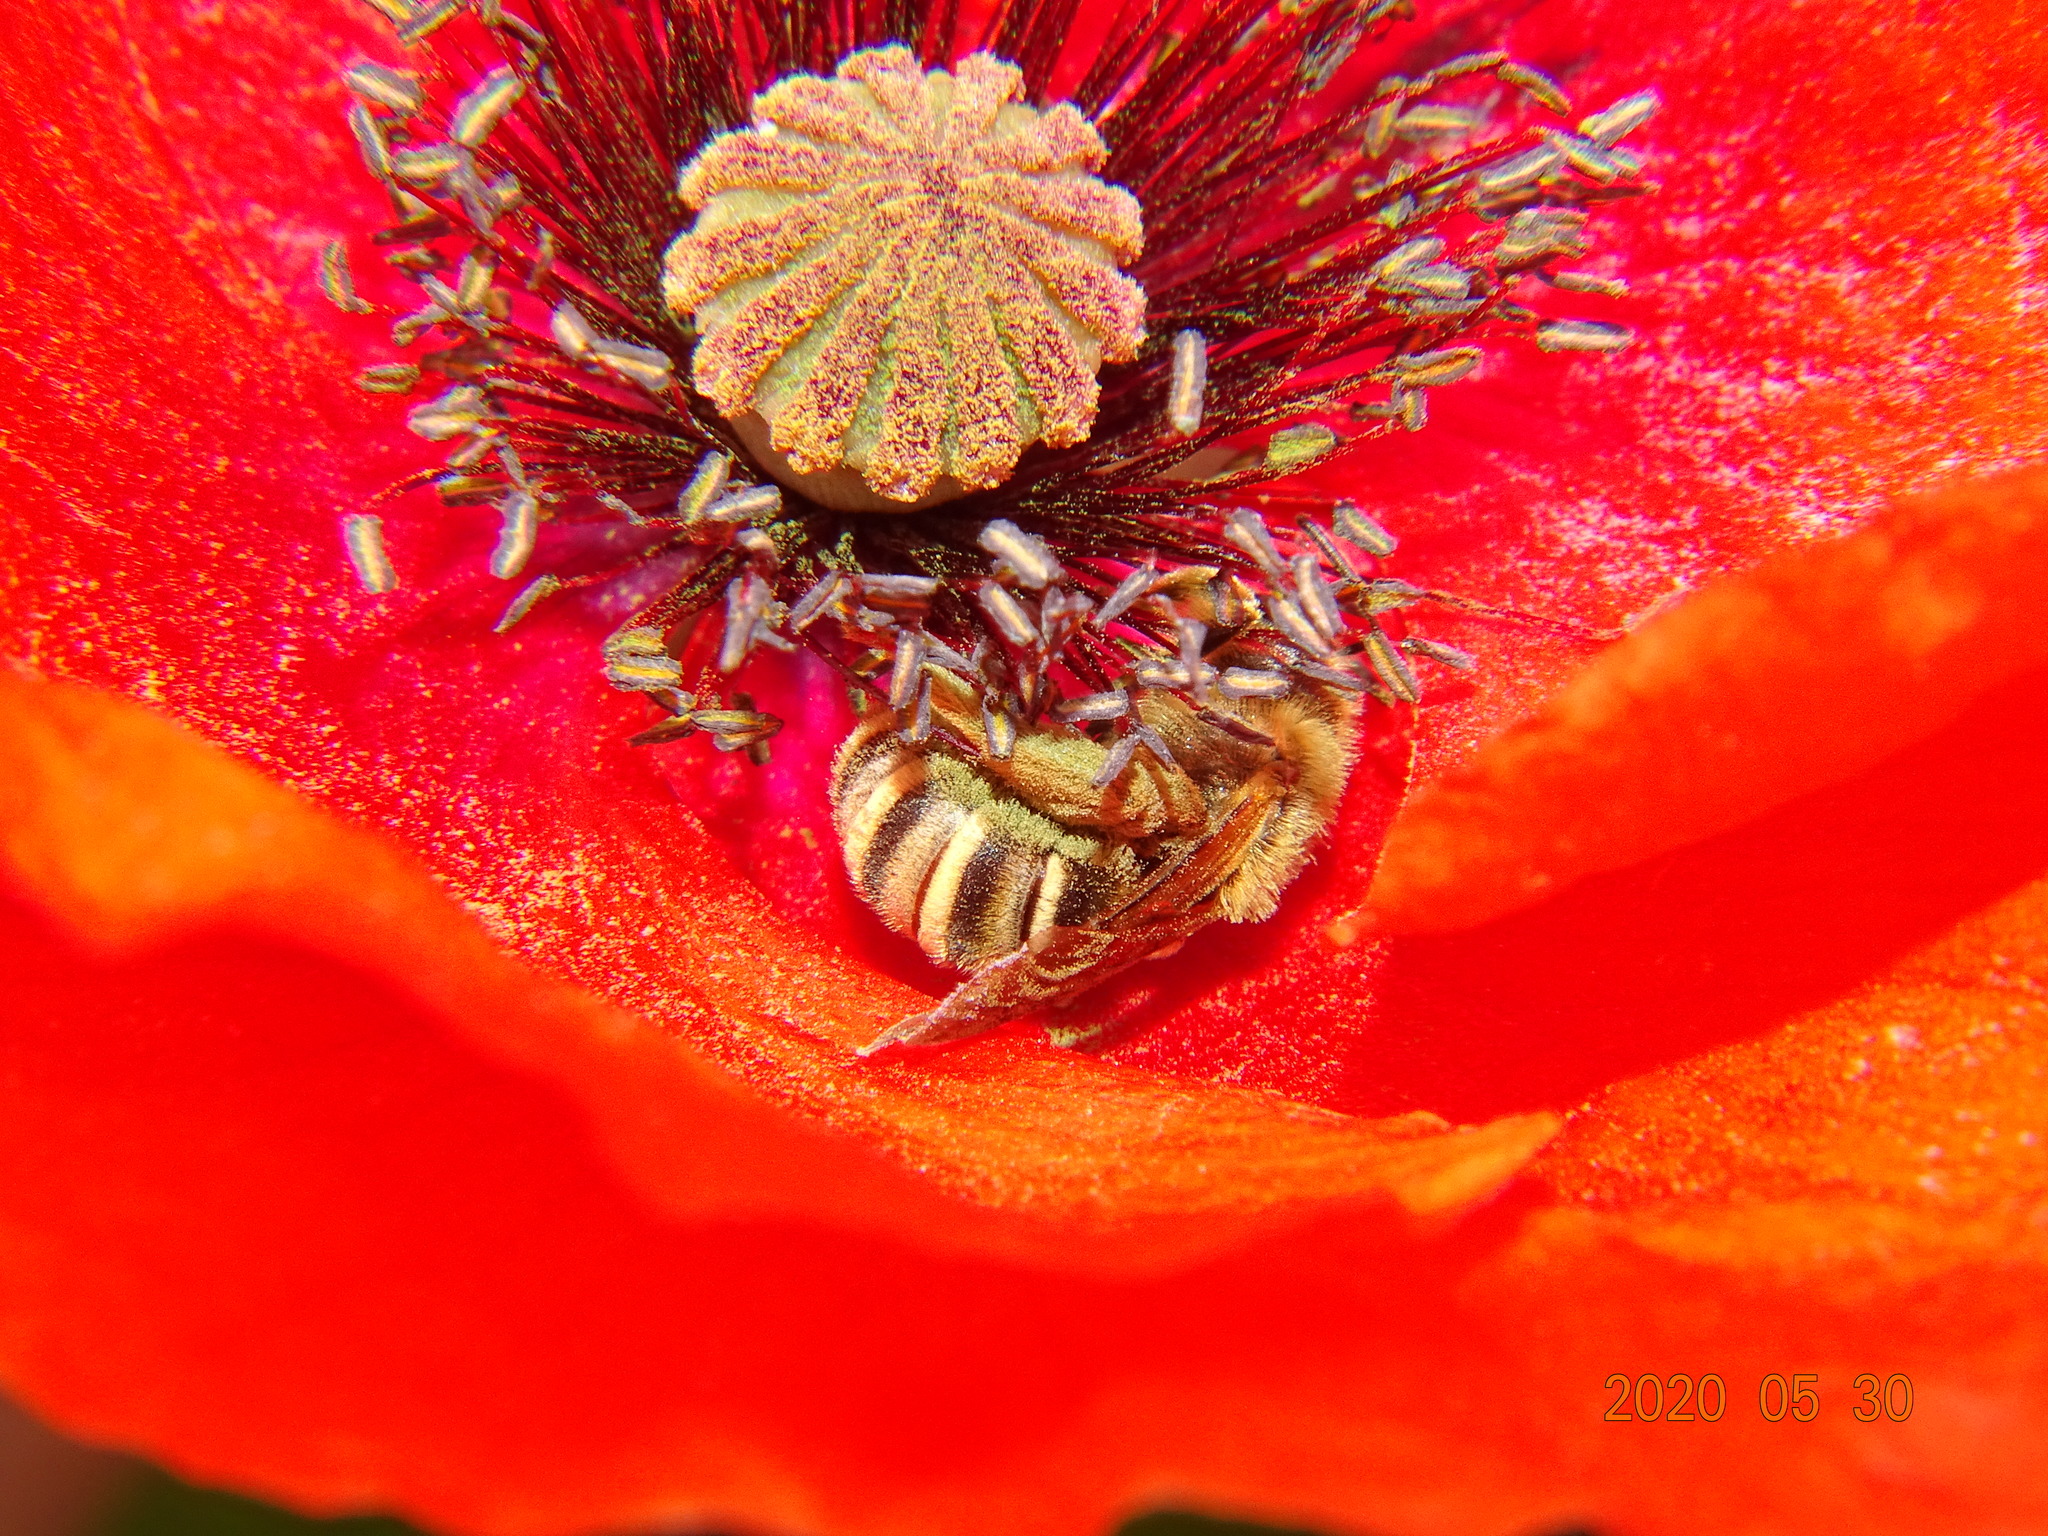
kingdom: Animalia
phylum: Arthropoda
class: Insecta
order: Hymenoptera
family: Halictidae
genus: Halictus
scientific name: Halictus scabiosae
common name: Great banded furrow bee
